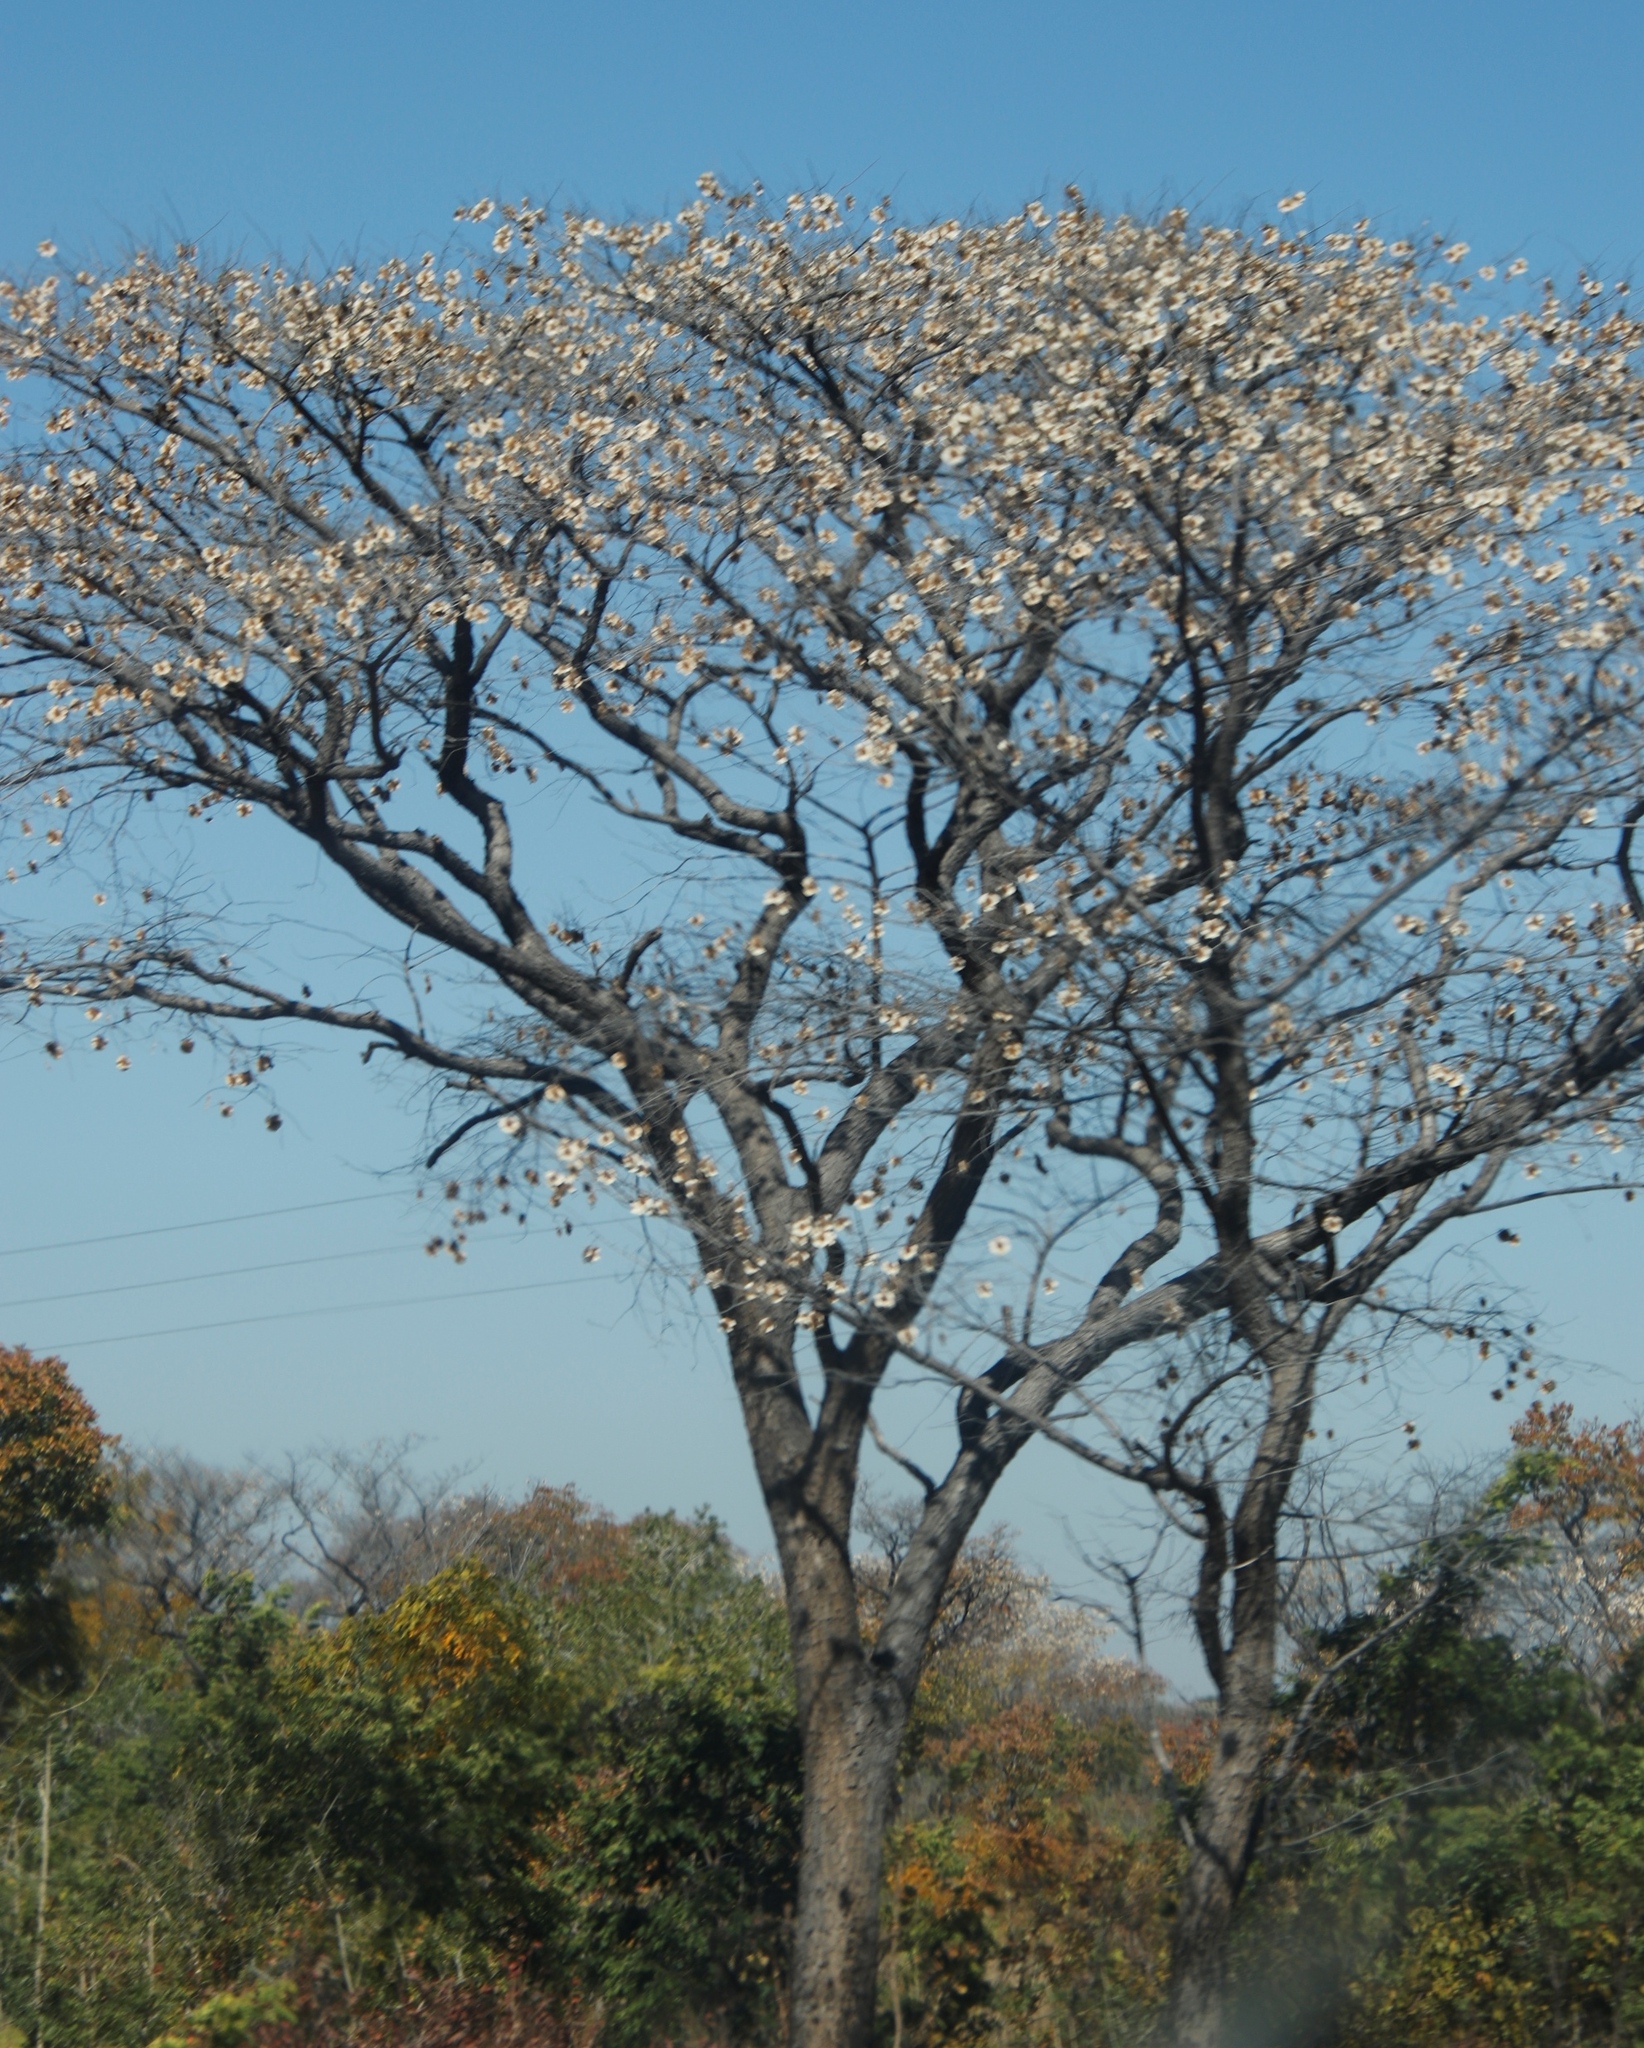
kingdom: Plantae
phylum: Tracheophyta
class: Magnoliopsida
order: Fabales
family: Fabaceae
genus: Pterocarpus
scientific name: Pterocarpus angolensis
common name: Bloodwood tree
